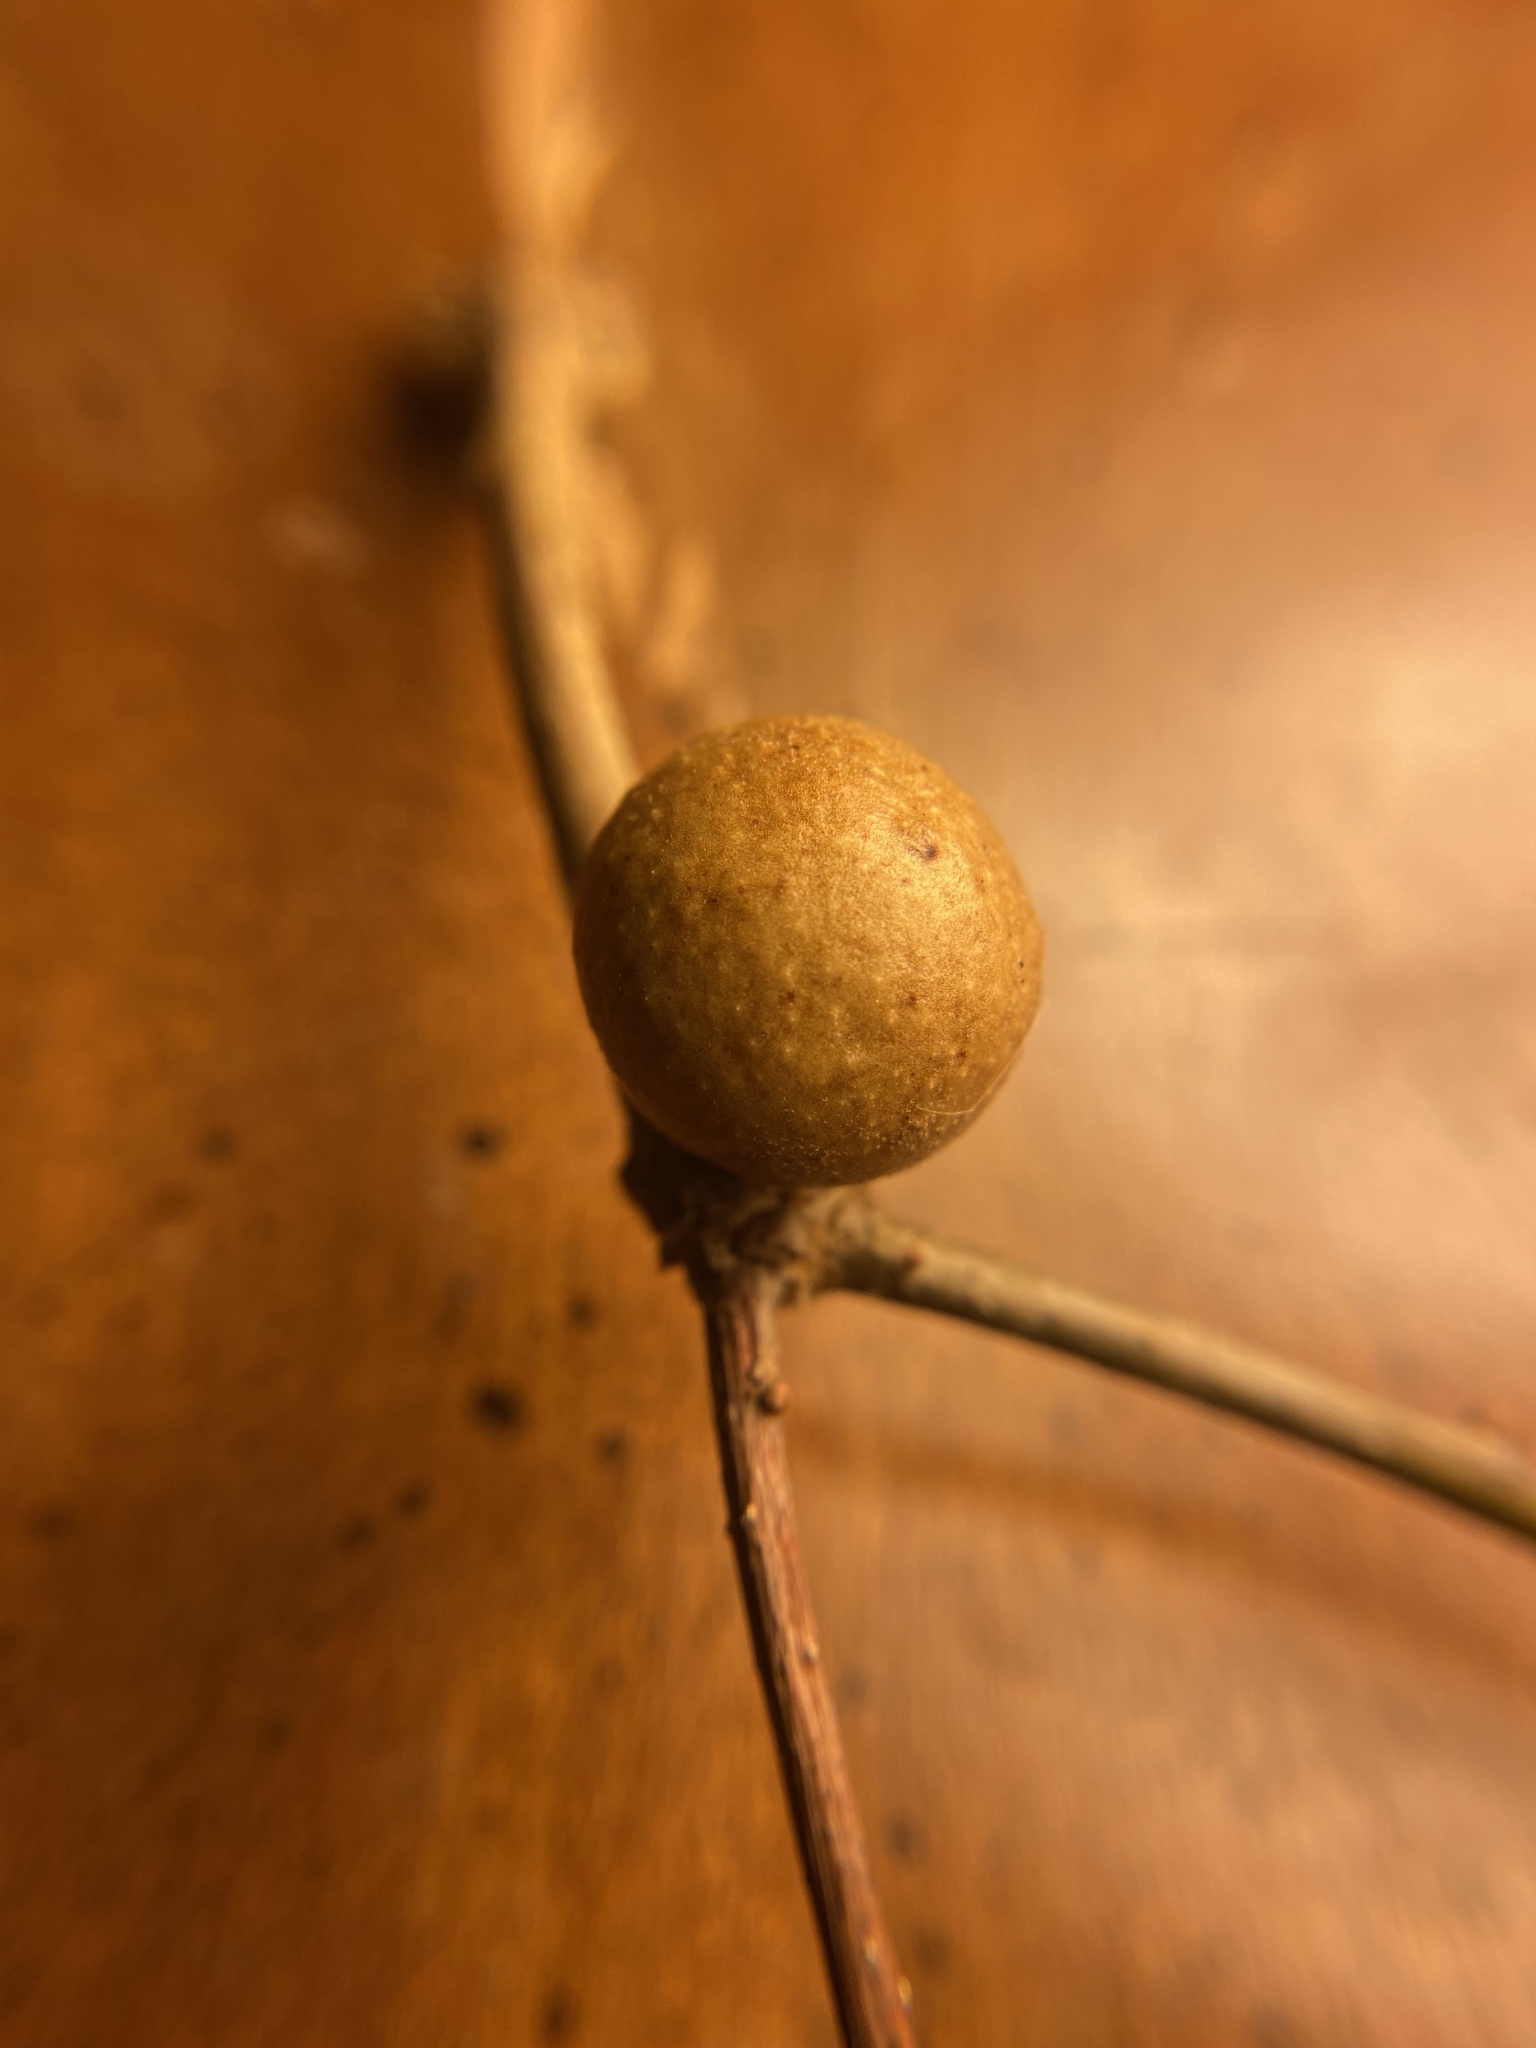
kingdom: Animalia
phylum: Arthropoda
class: Insecta
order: Hymenoptera
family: Cynipidae
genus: Disholcaspis
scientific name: Disholcaspis quercusglobulus
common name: Round bullet gall wasp
